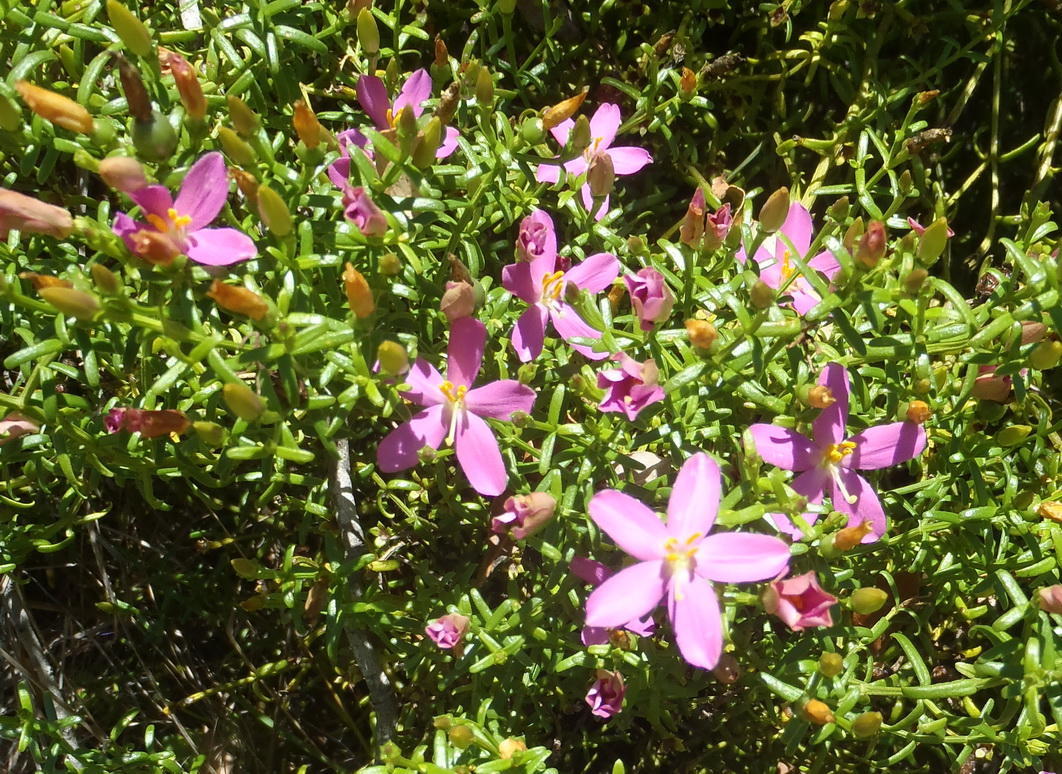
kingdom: Plantae
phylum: Tracheophyta
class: Magnoliopsida
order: Gentianales
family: Gentianaceae
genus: Chironia
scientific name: Chironia baccifera
